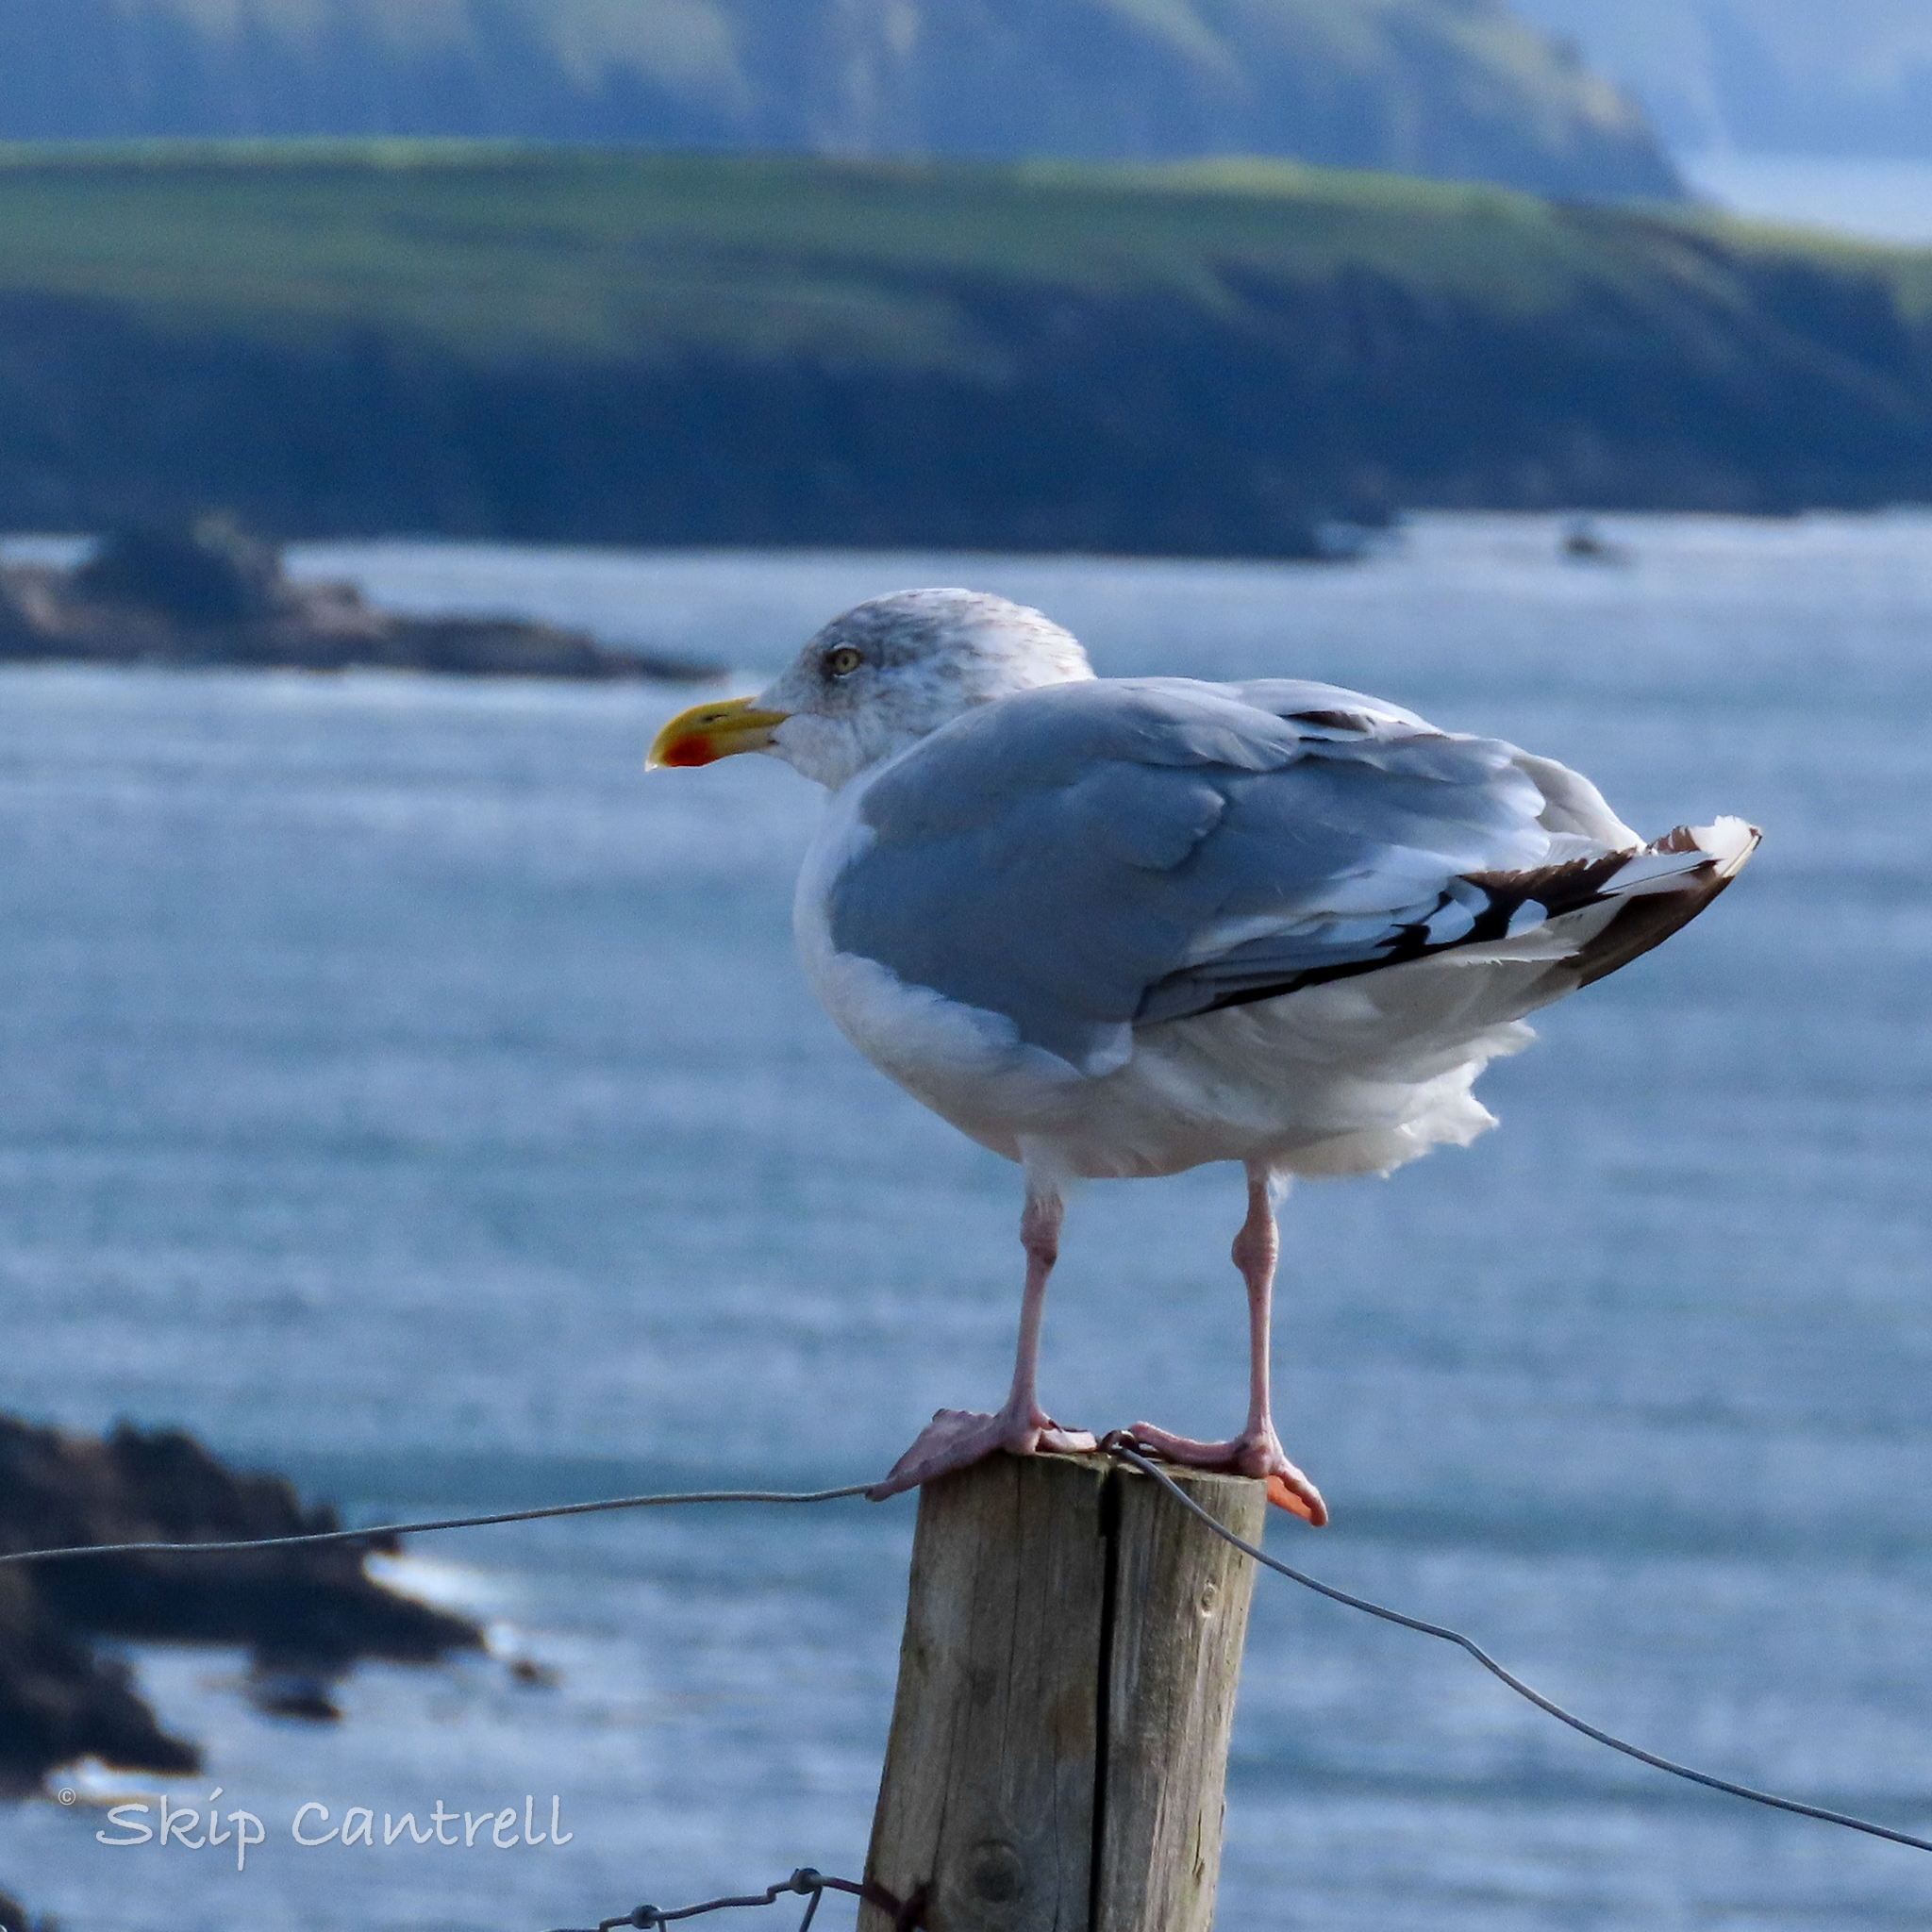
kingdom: Animalia
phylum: Chordata
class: Aves
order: Charadriiformes
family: Laridae
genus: Larus
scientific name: Larus argentatus
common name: Herring gull
